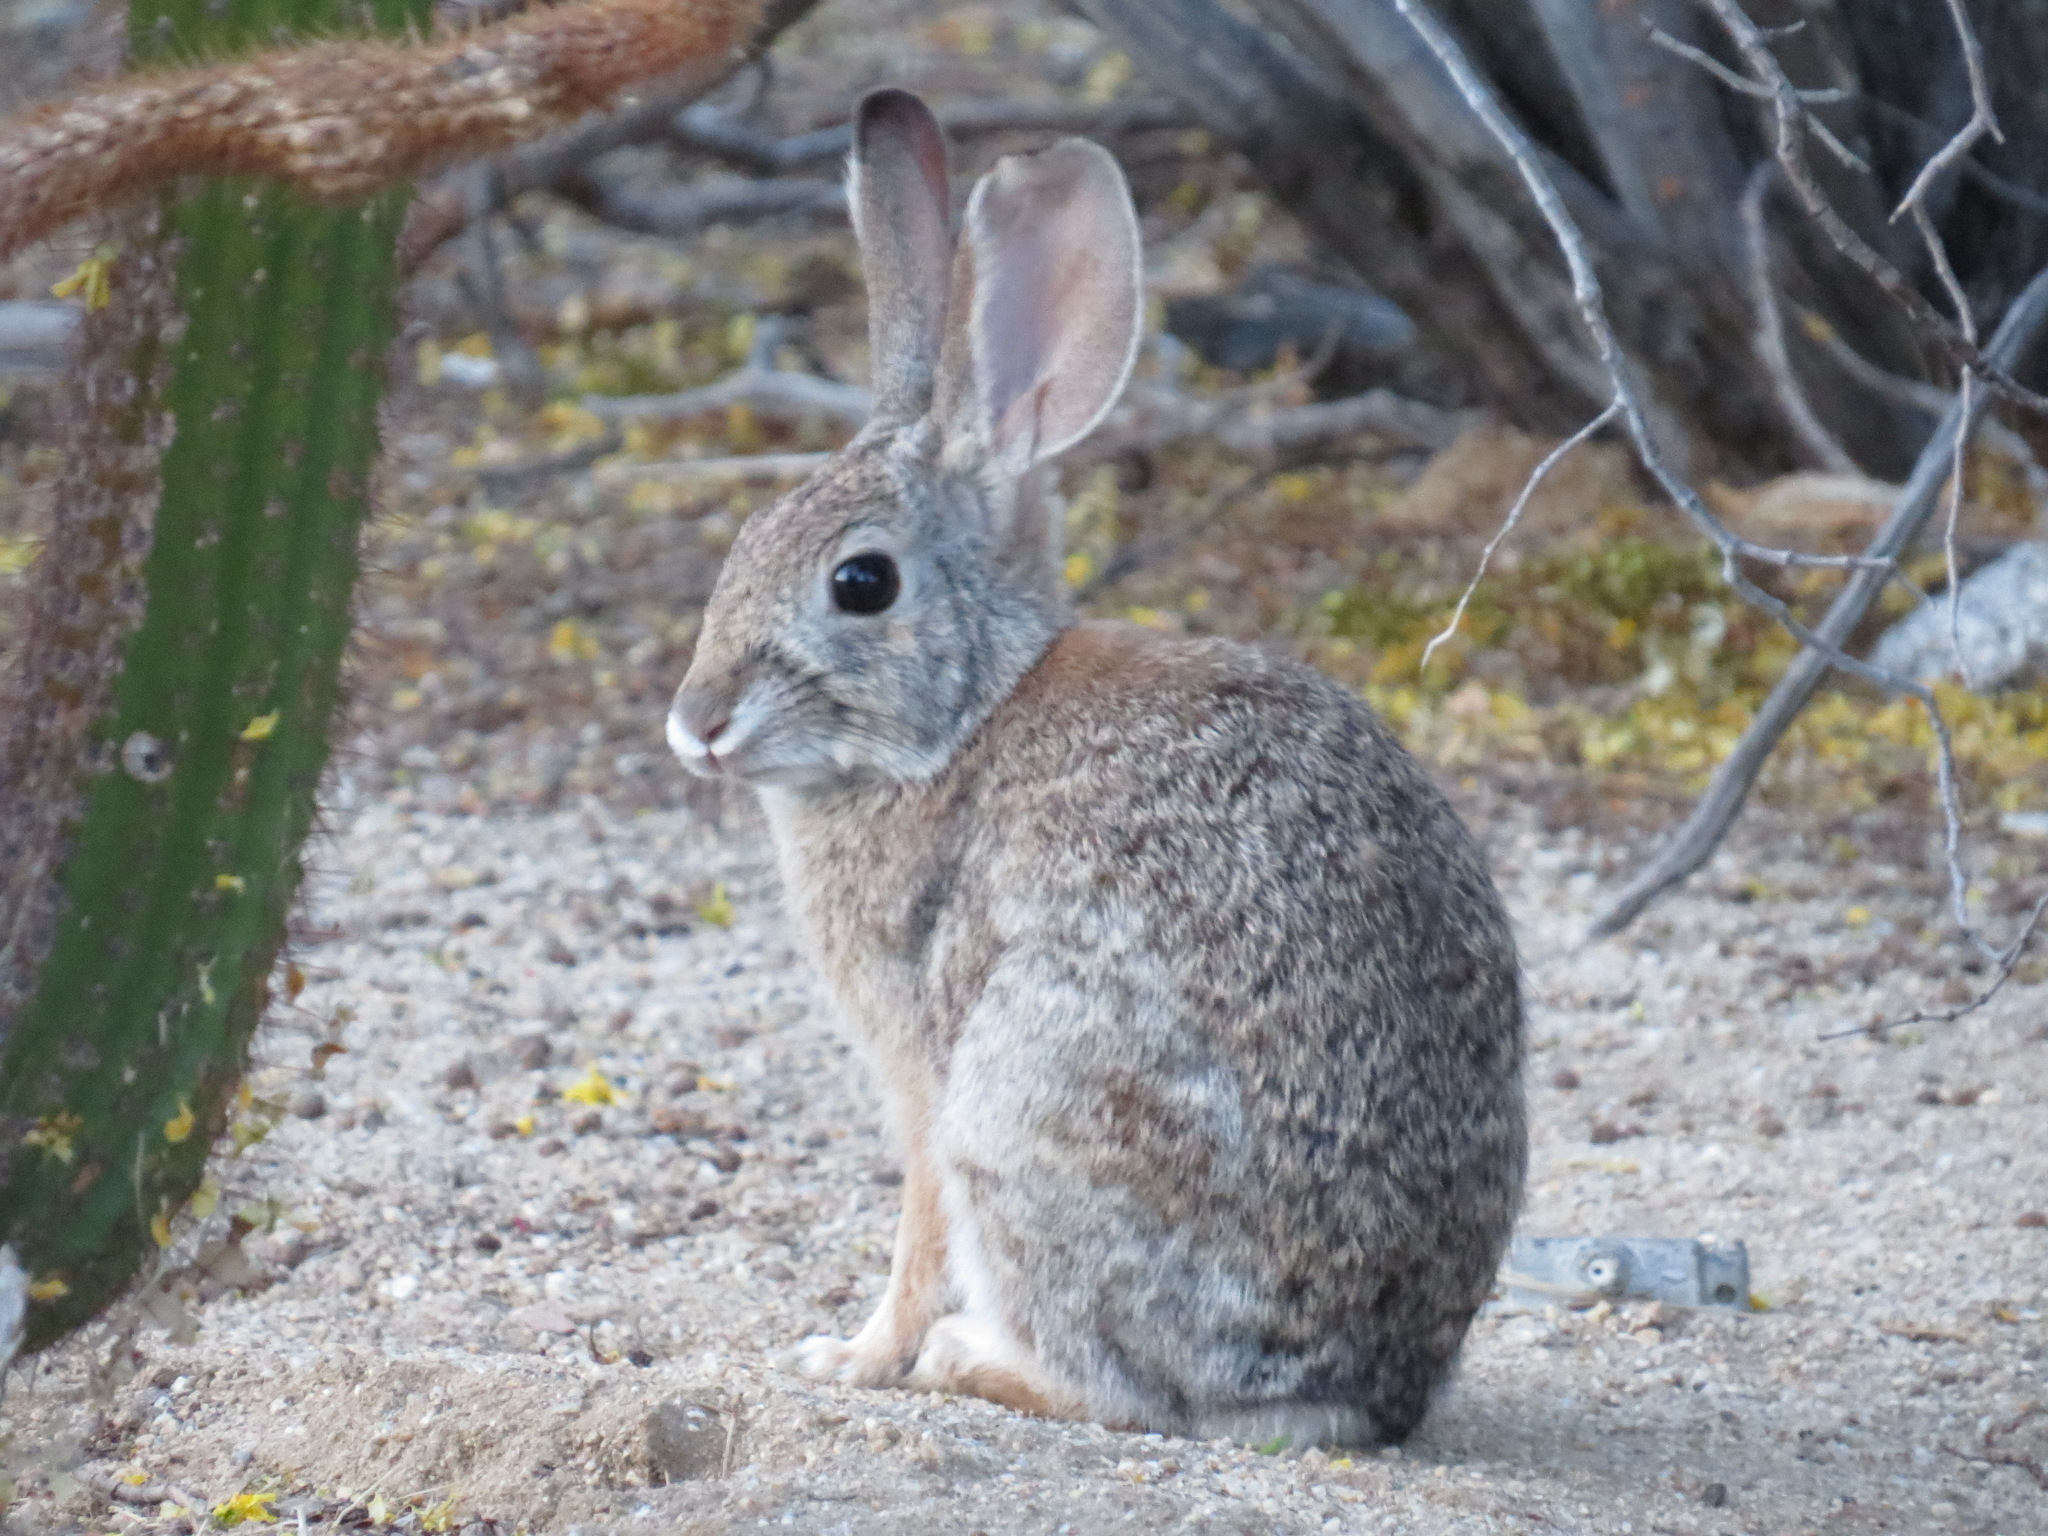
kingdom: Animalia
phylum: Chordata
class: Mammalia
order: Lagomorpha
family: Leporidae
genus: Sylvilagus
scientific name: Sylvilagus audubonii
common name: Desert cottontail
